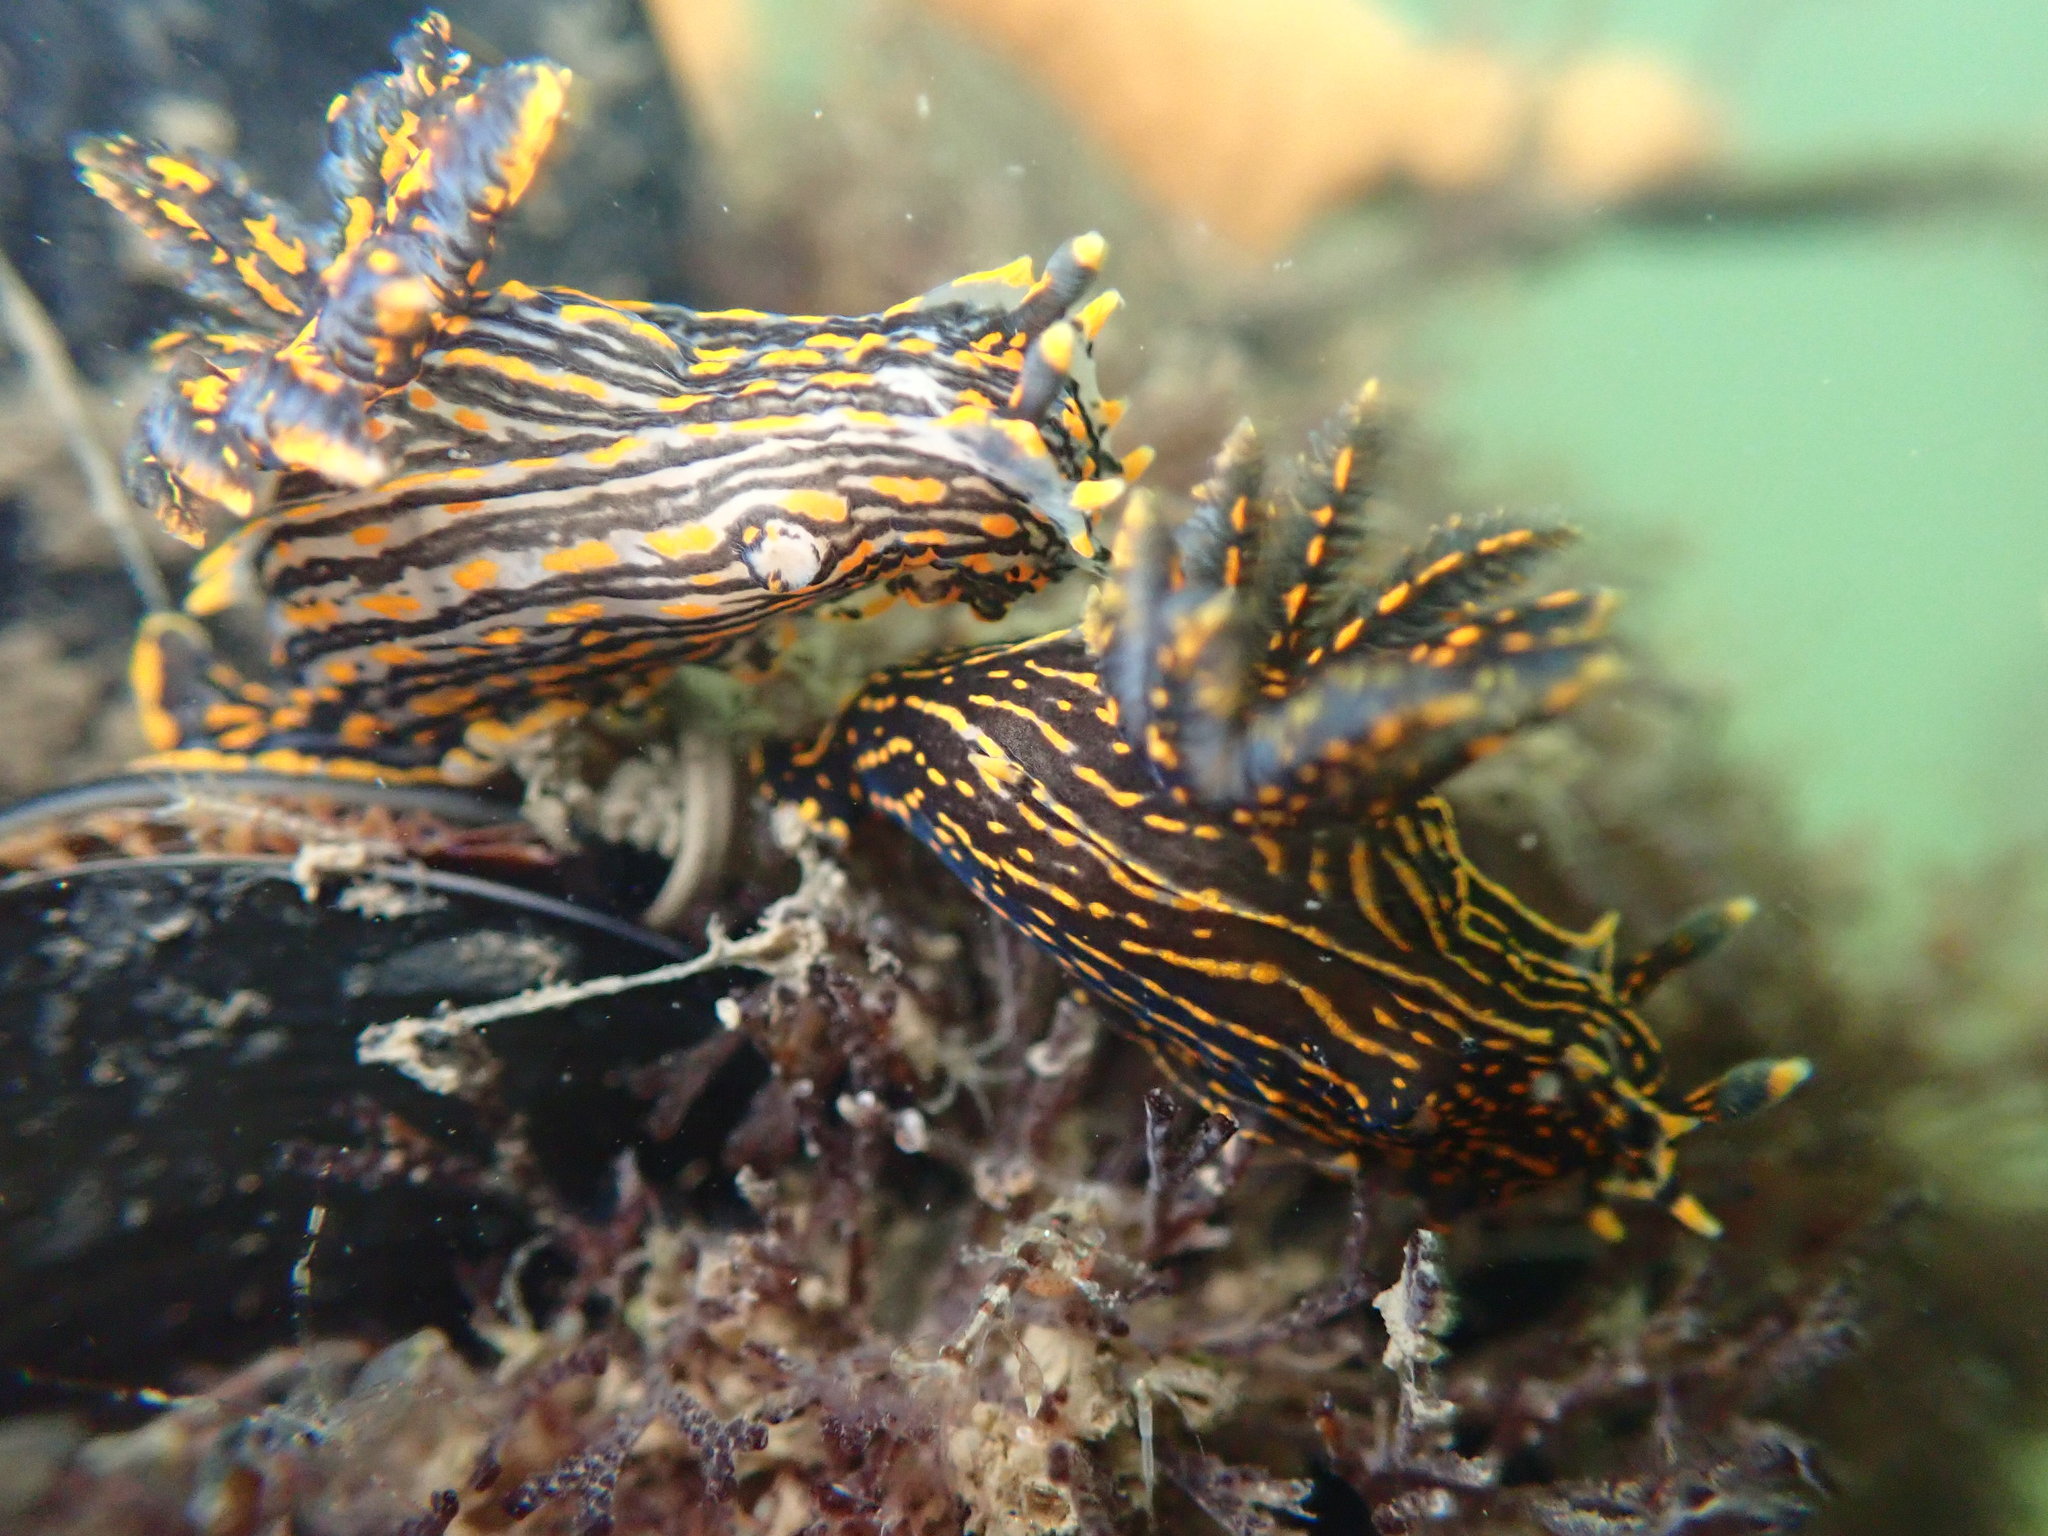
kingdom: Animalia
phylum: Mollusca
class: Gastropoda
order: Nudibranchia
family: Polyceridae
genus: Polycera
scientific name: Polycera atra
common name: Orange-spike polycera
